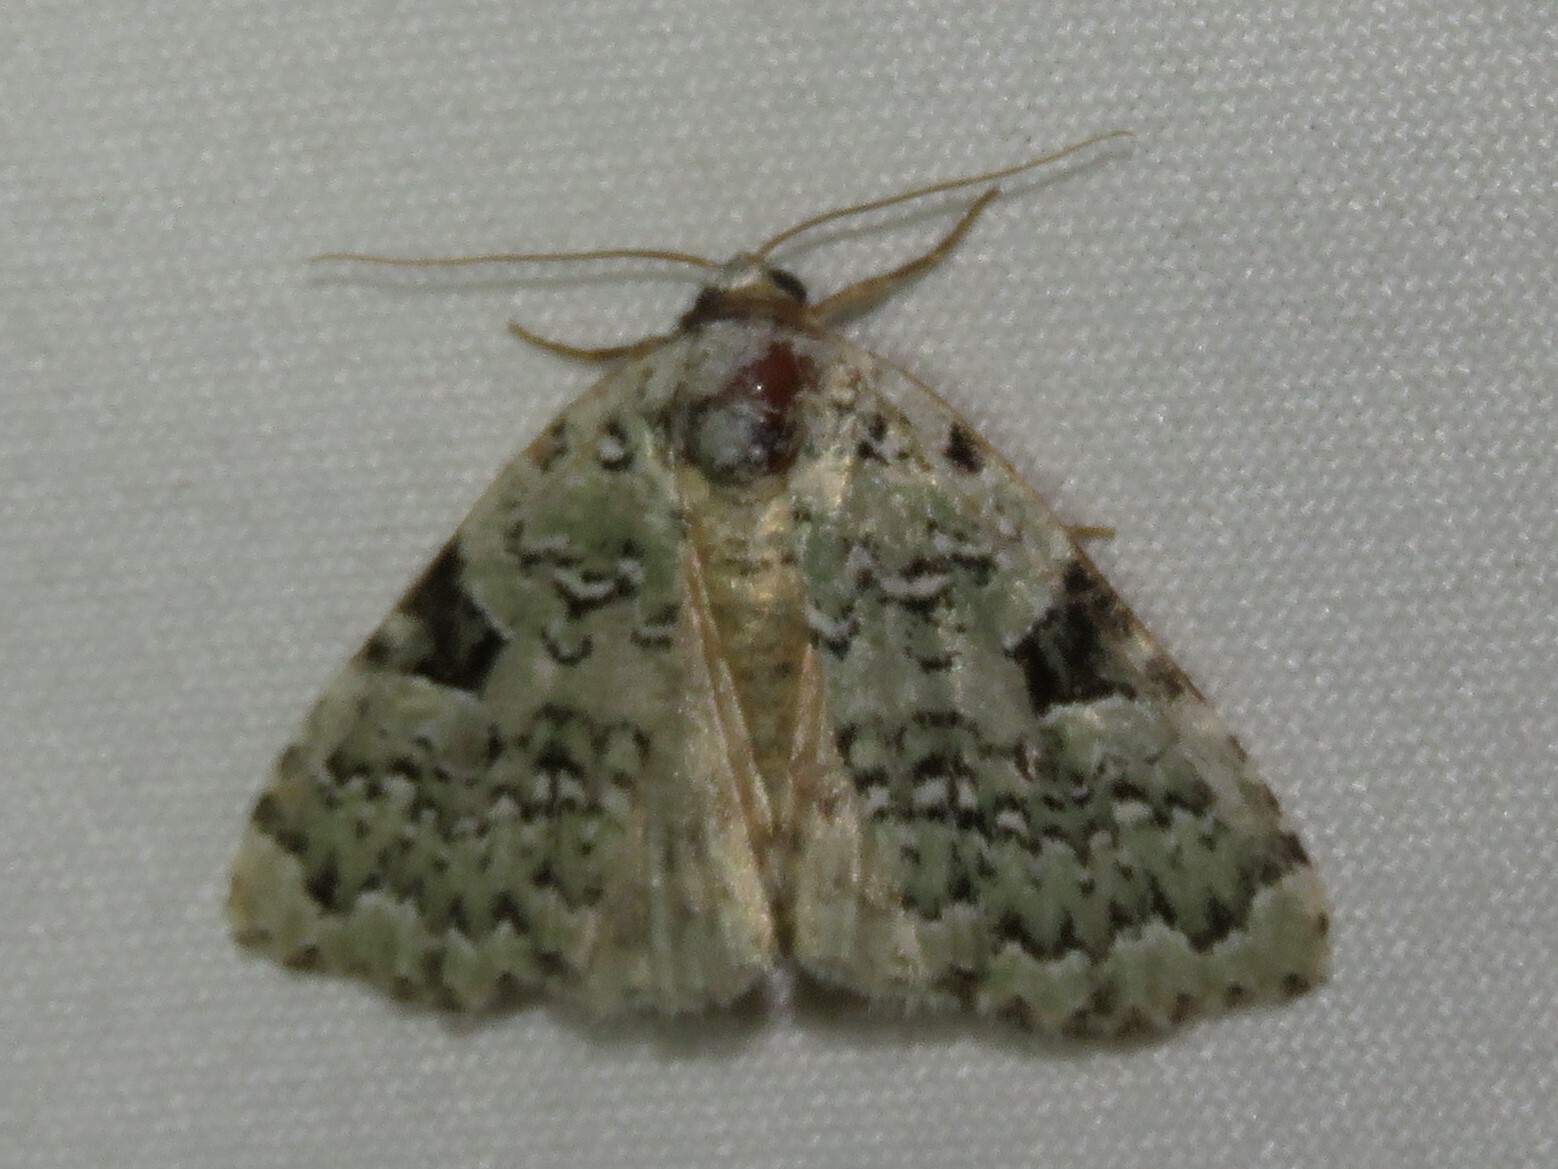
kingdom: Animalia
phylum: Arthropoda
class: Insecta
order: Lepidoptera
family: Noctuidae
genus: Leuconycta
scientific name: Leuconycta diphteroides
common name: Green leuconycta moth
